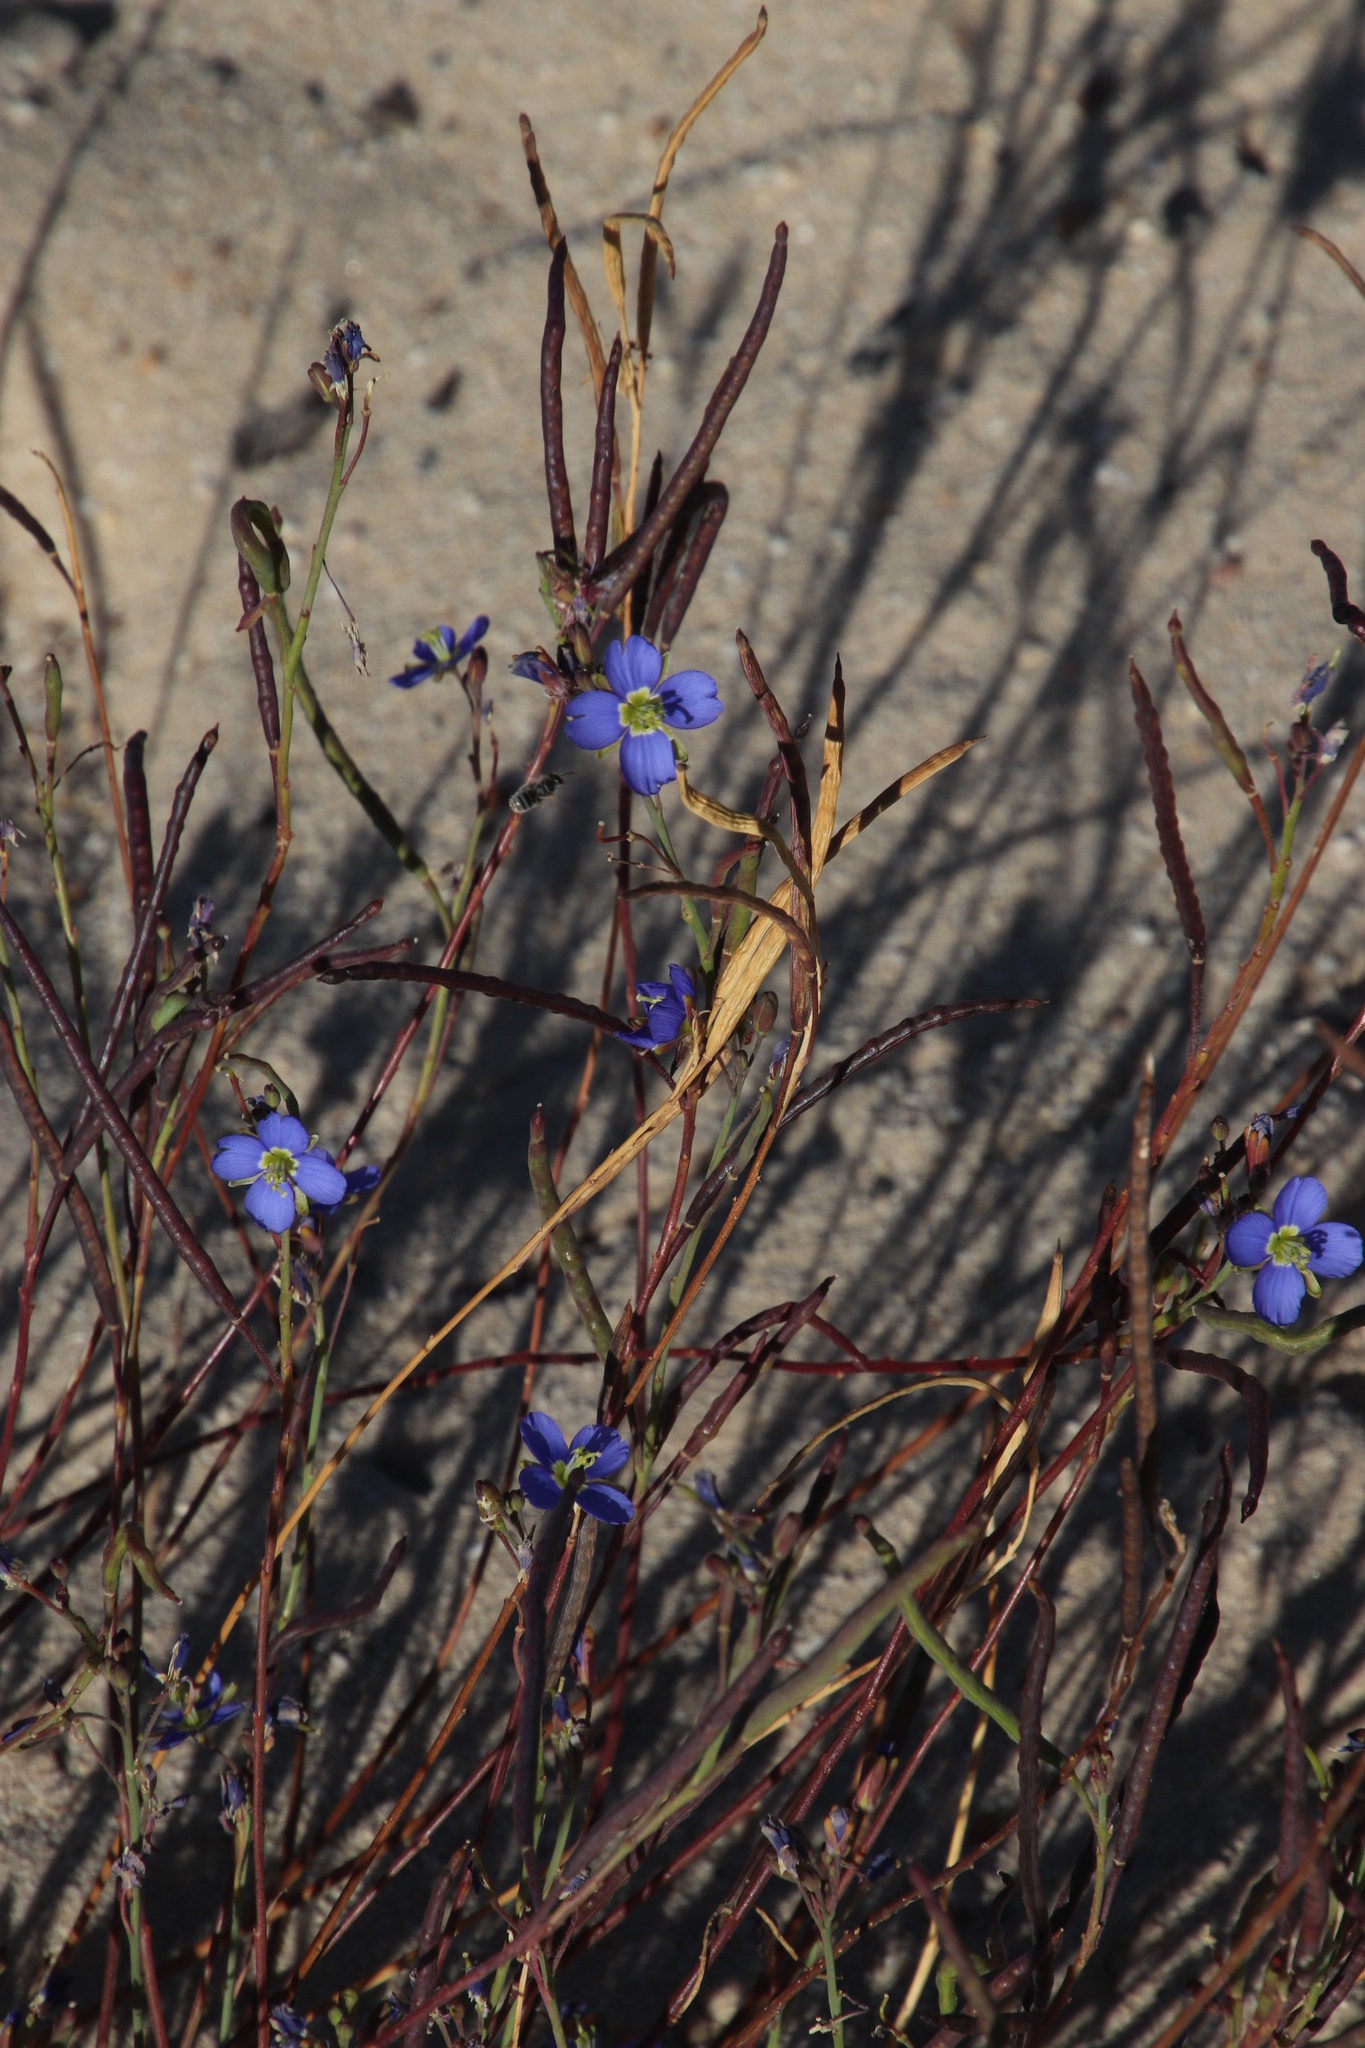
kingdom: Plantae
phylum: Tracheophyta
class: Magnoliopsida
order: Brassicales
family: Brassicaceae
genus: Heliophila
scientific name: Heliophila africana
